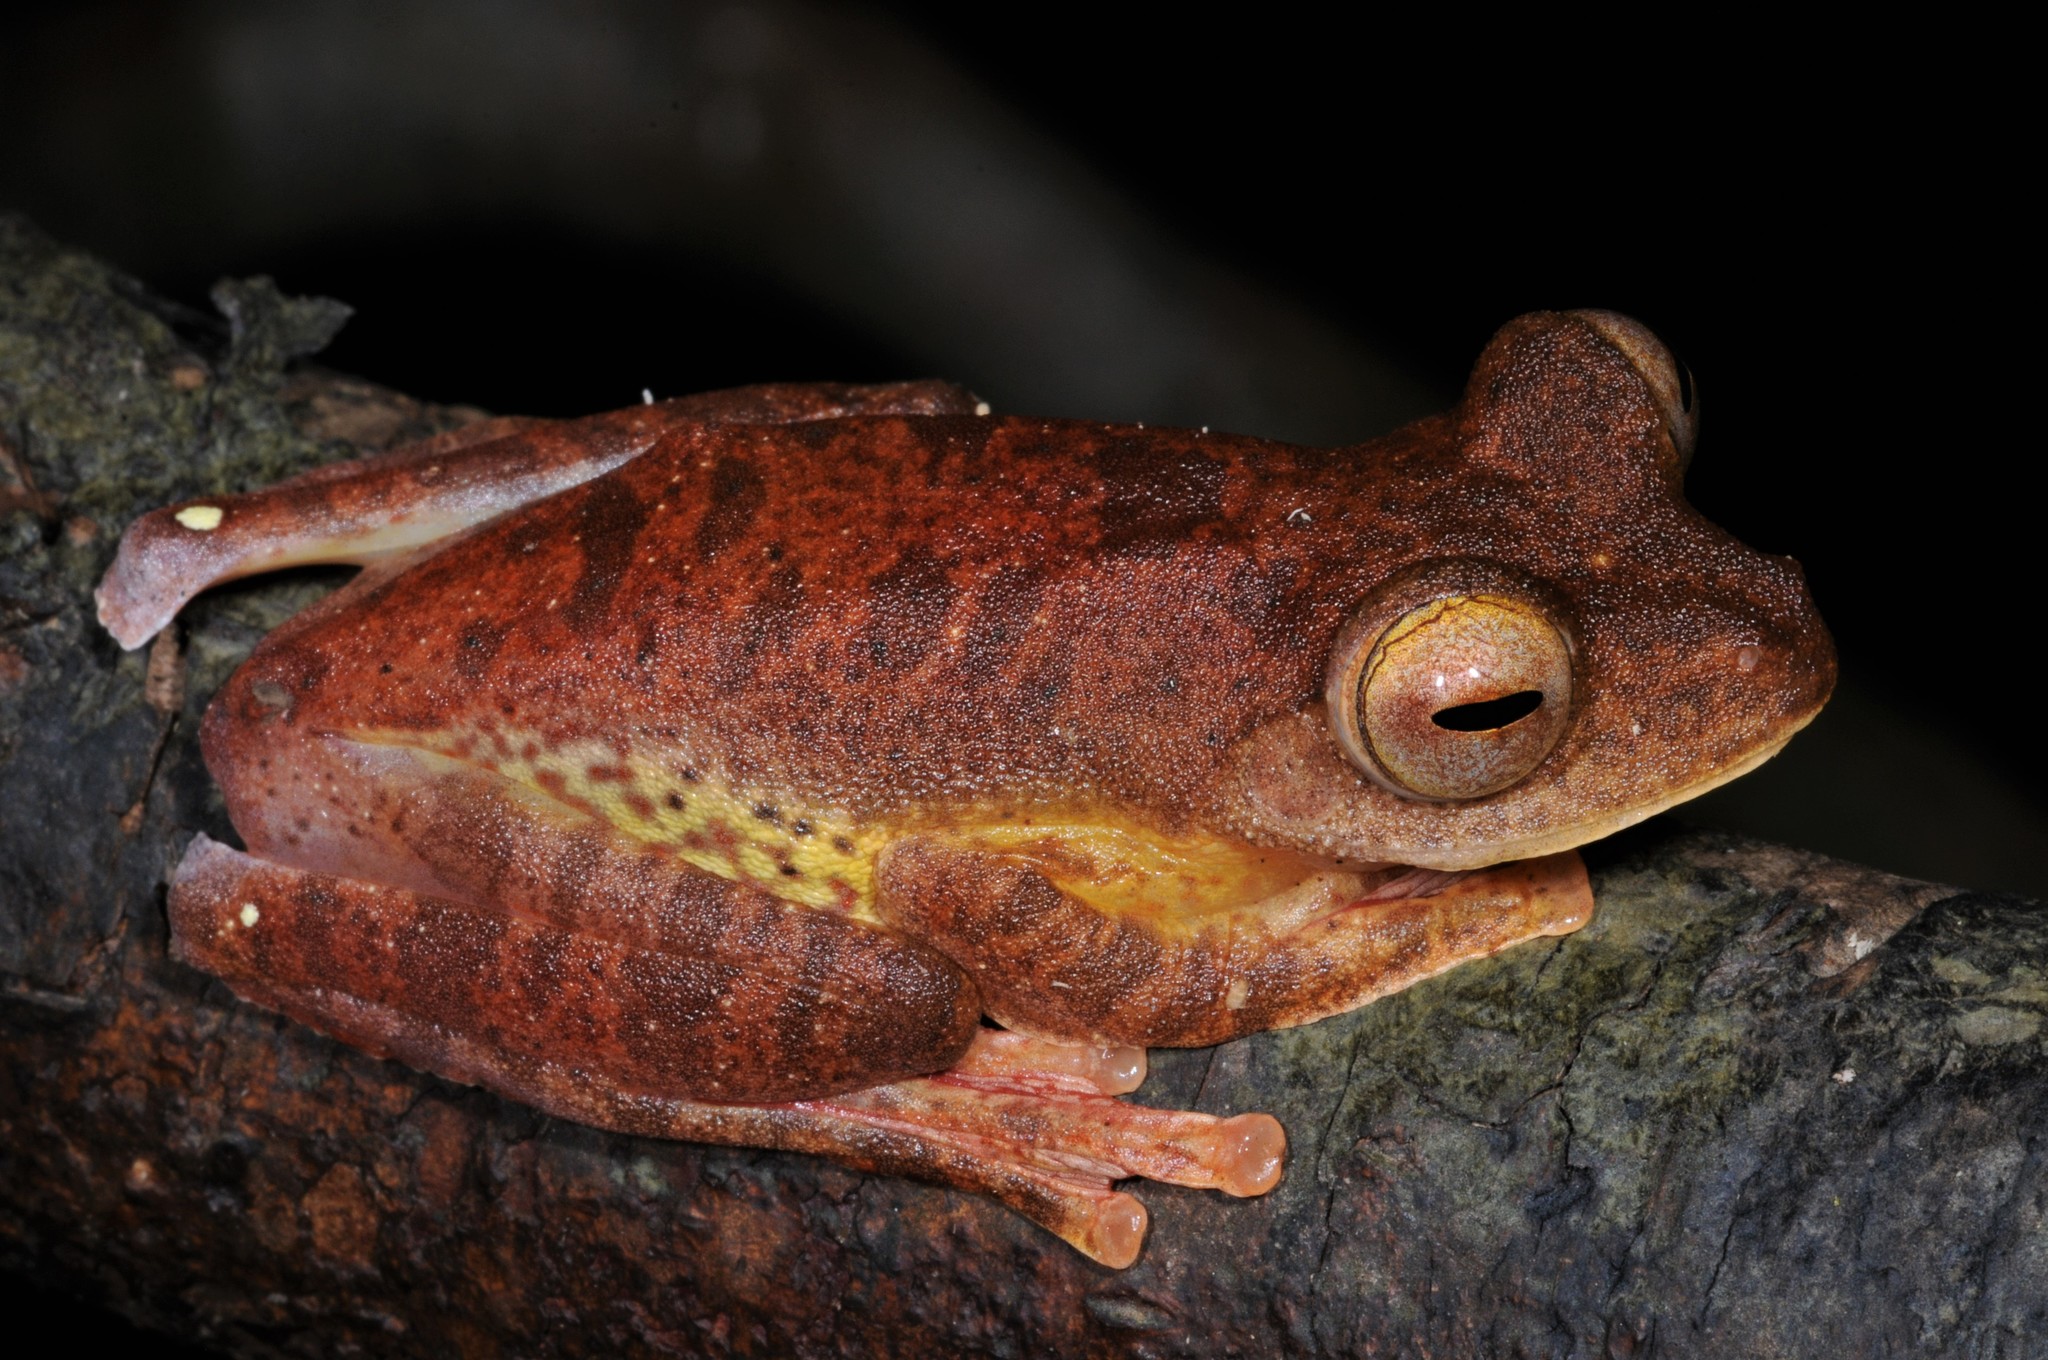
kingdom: Animalia
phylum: Chordata
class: Amphibia
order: Anura
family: Rhacophoridae
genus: Rhacophorus
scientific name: Rhacophorus pardalis
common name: Harlequin tree frog
